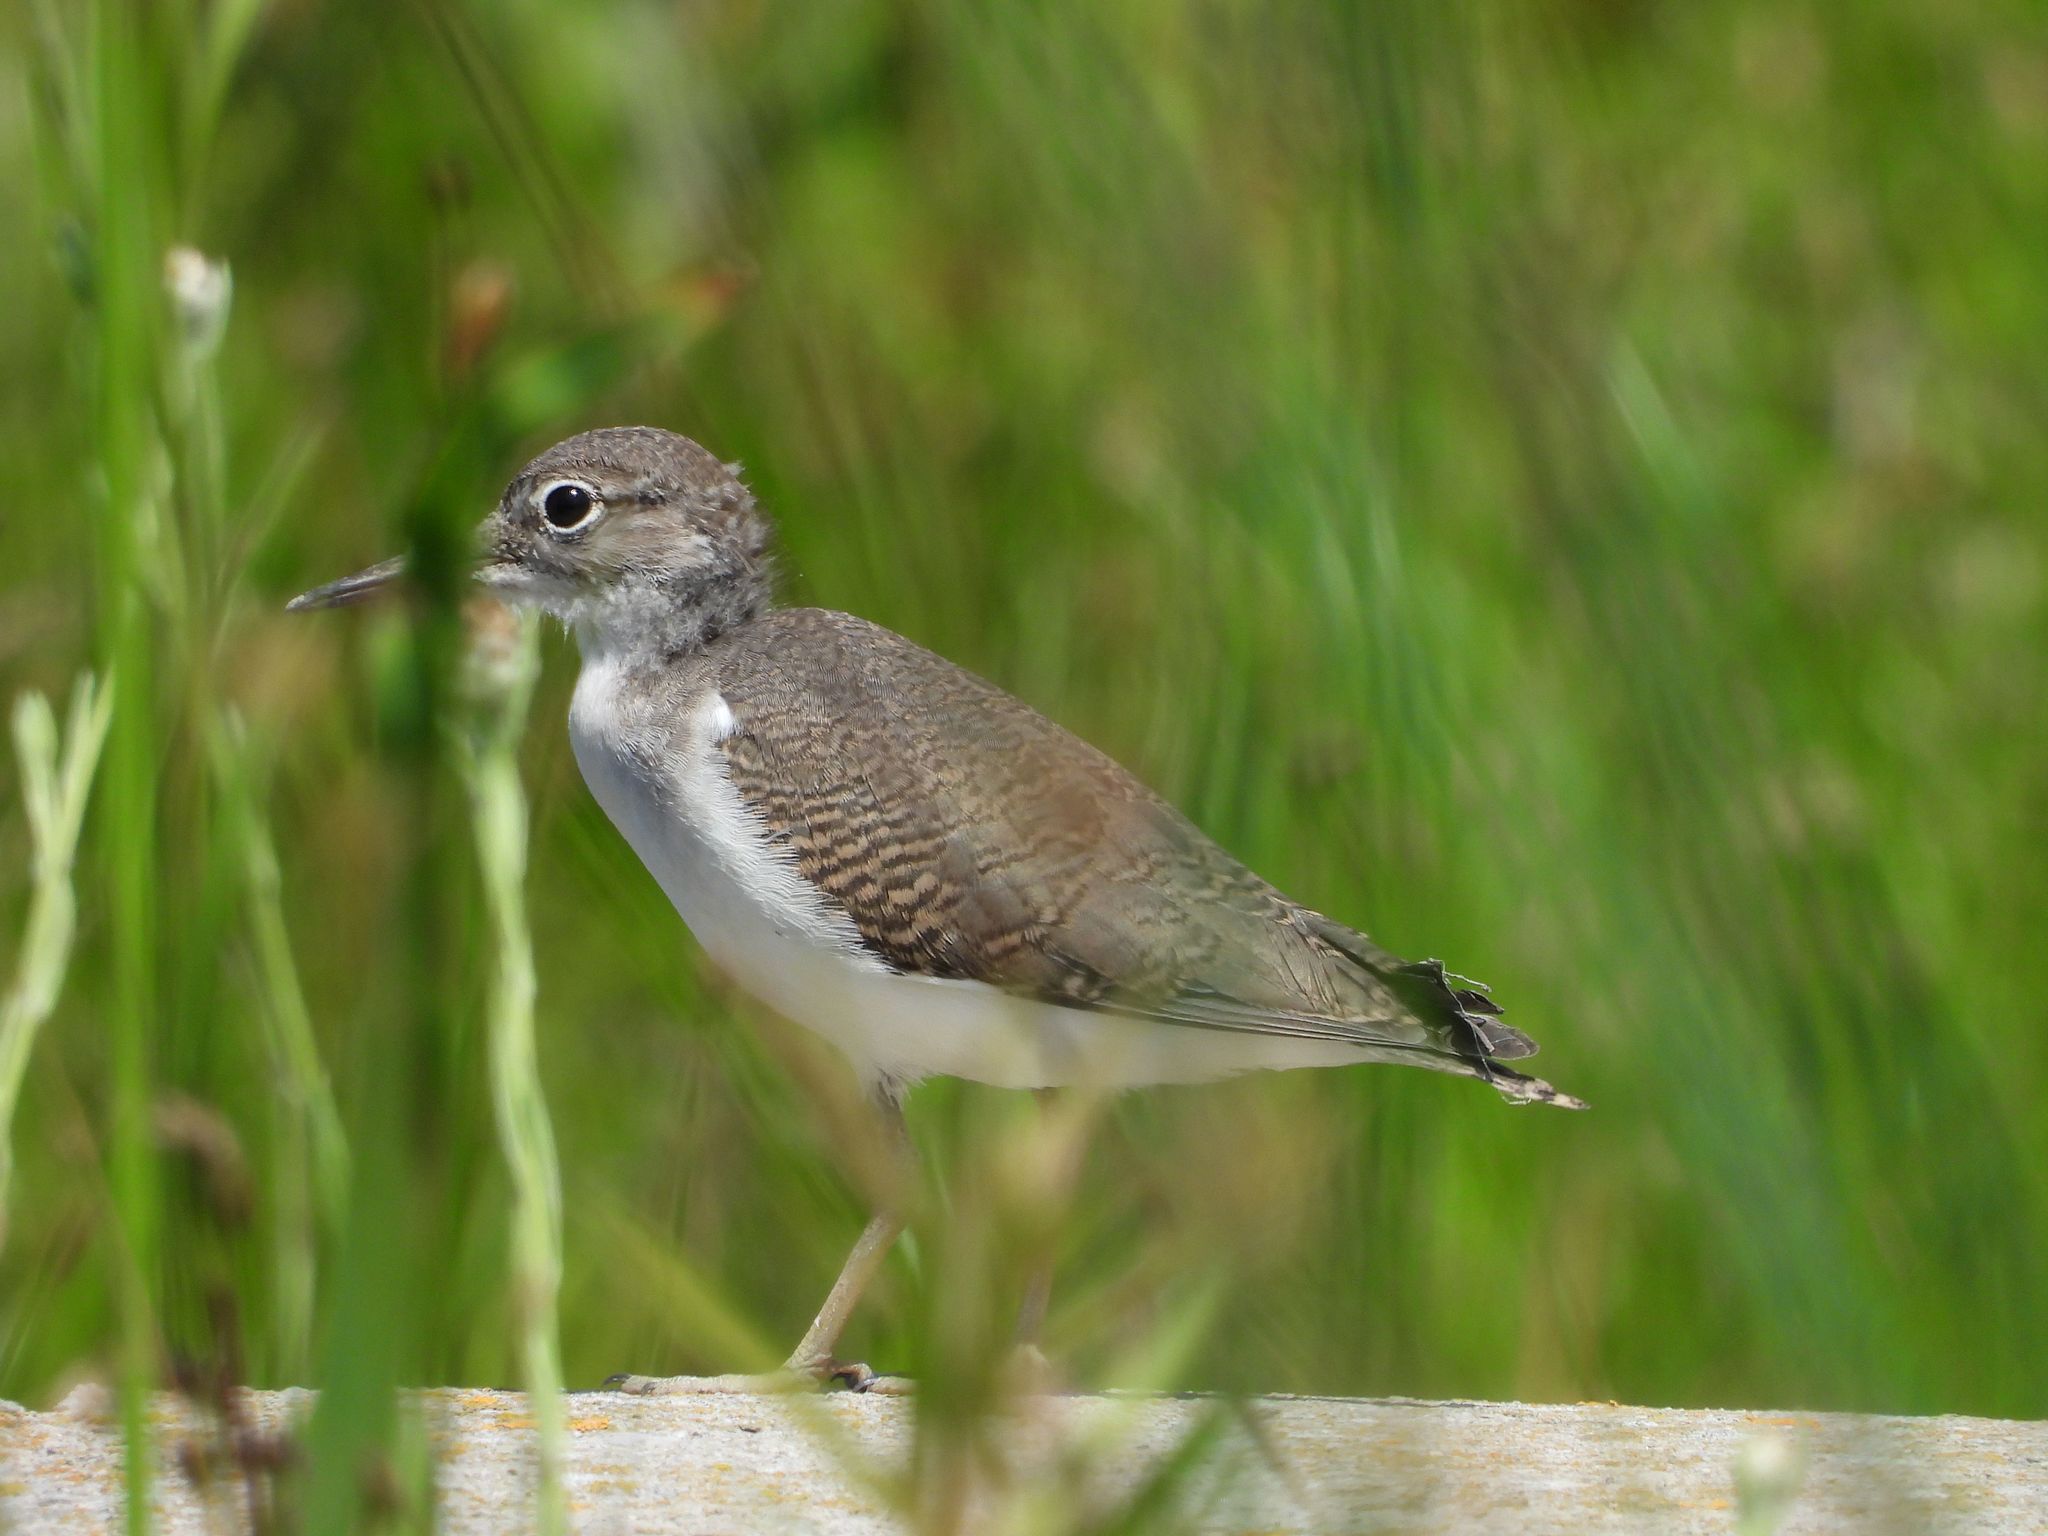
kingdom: Animalia
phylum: Chordata
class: Aves
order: Charadriiformes
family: Scolopacidae
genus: Actitis
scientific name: Actitis macularius
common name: Spotted sandpiper
